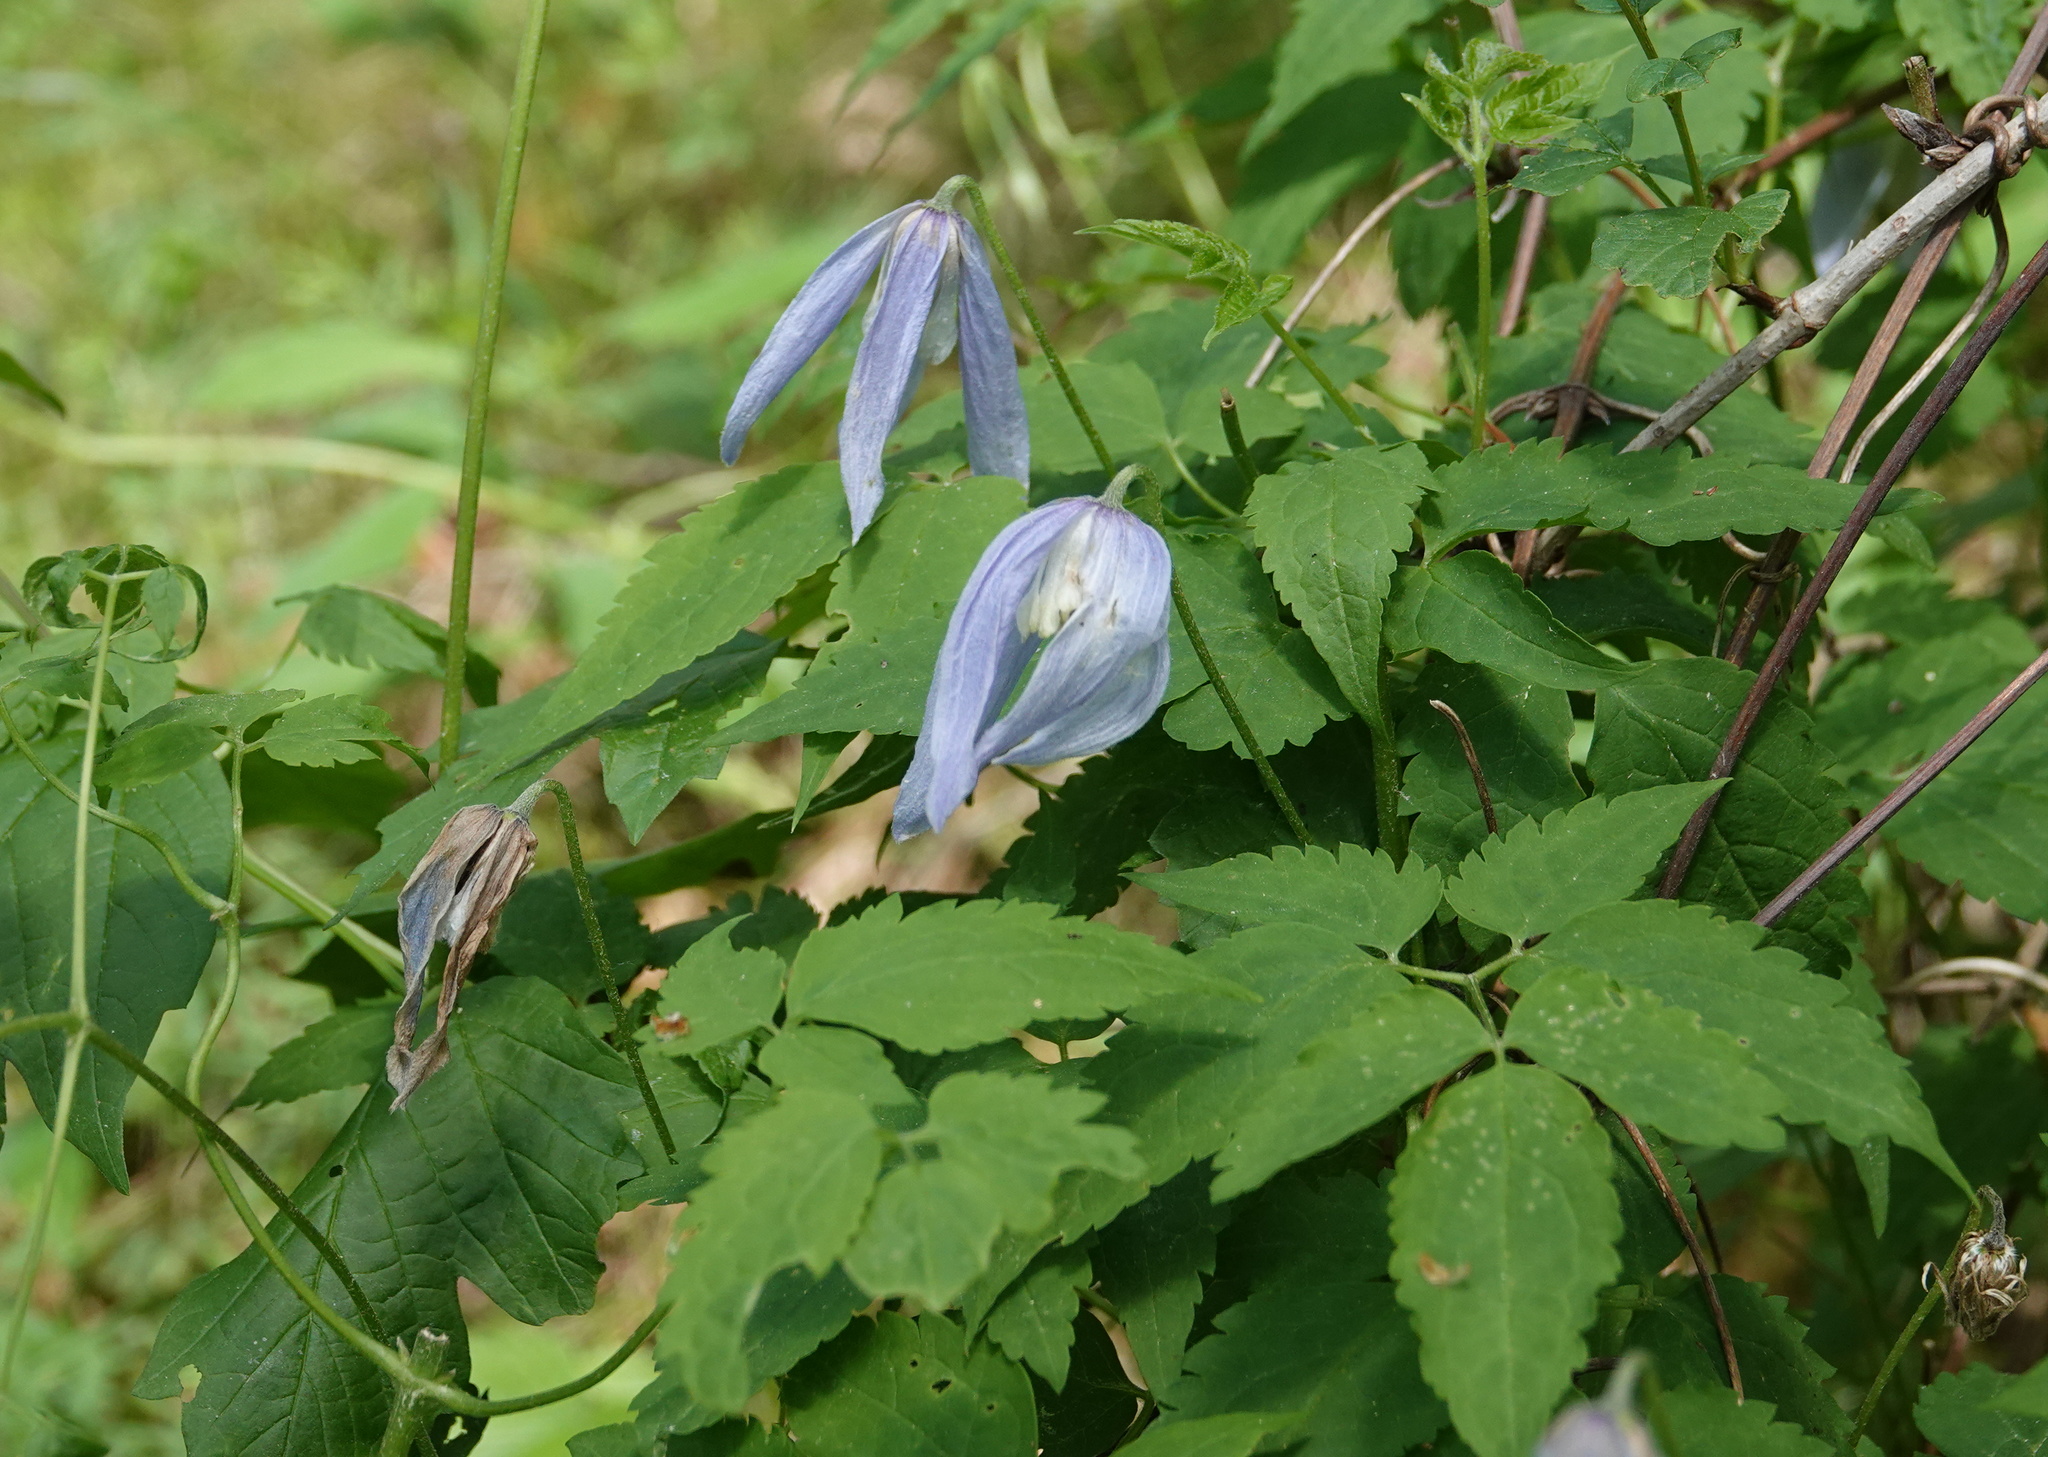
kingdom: Plantae
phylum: Tracheophyta
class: Magnoliopsida
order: Ranunculales
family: Ranunculaceae
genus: Clematis
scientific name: Clematis alpina
